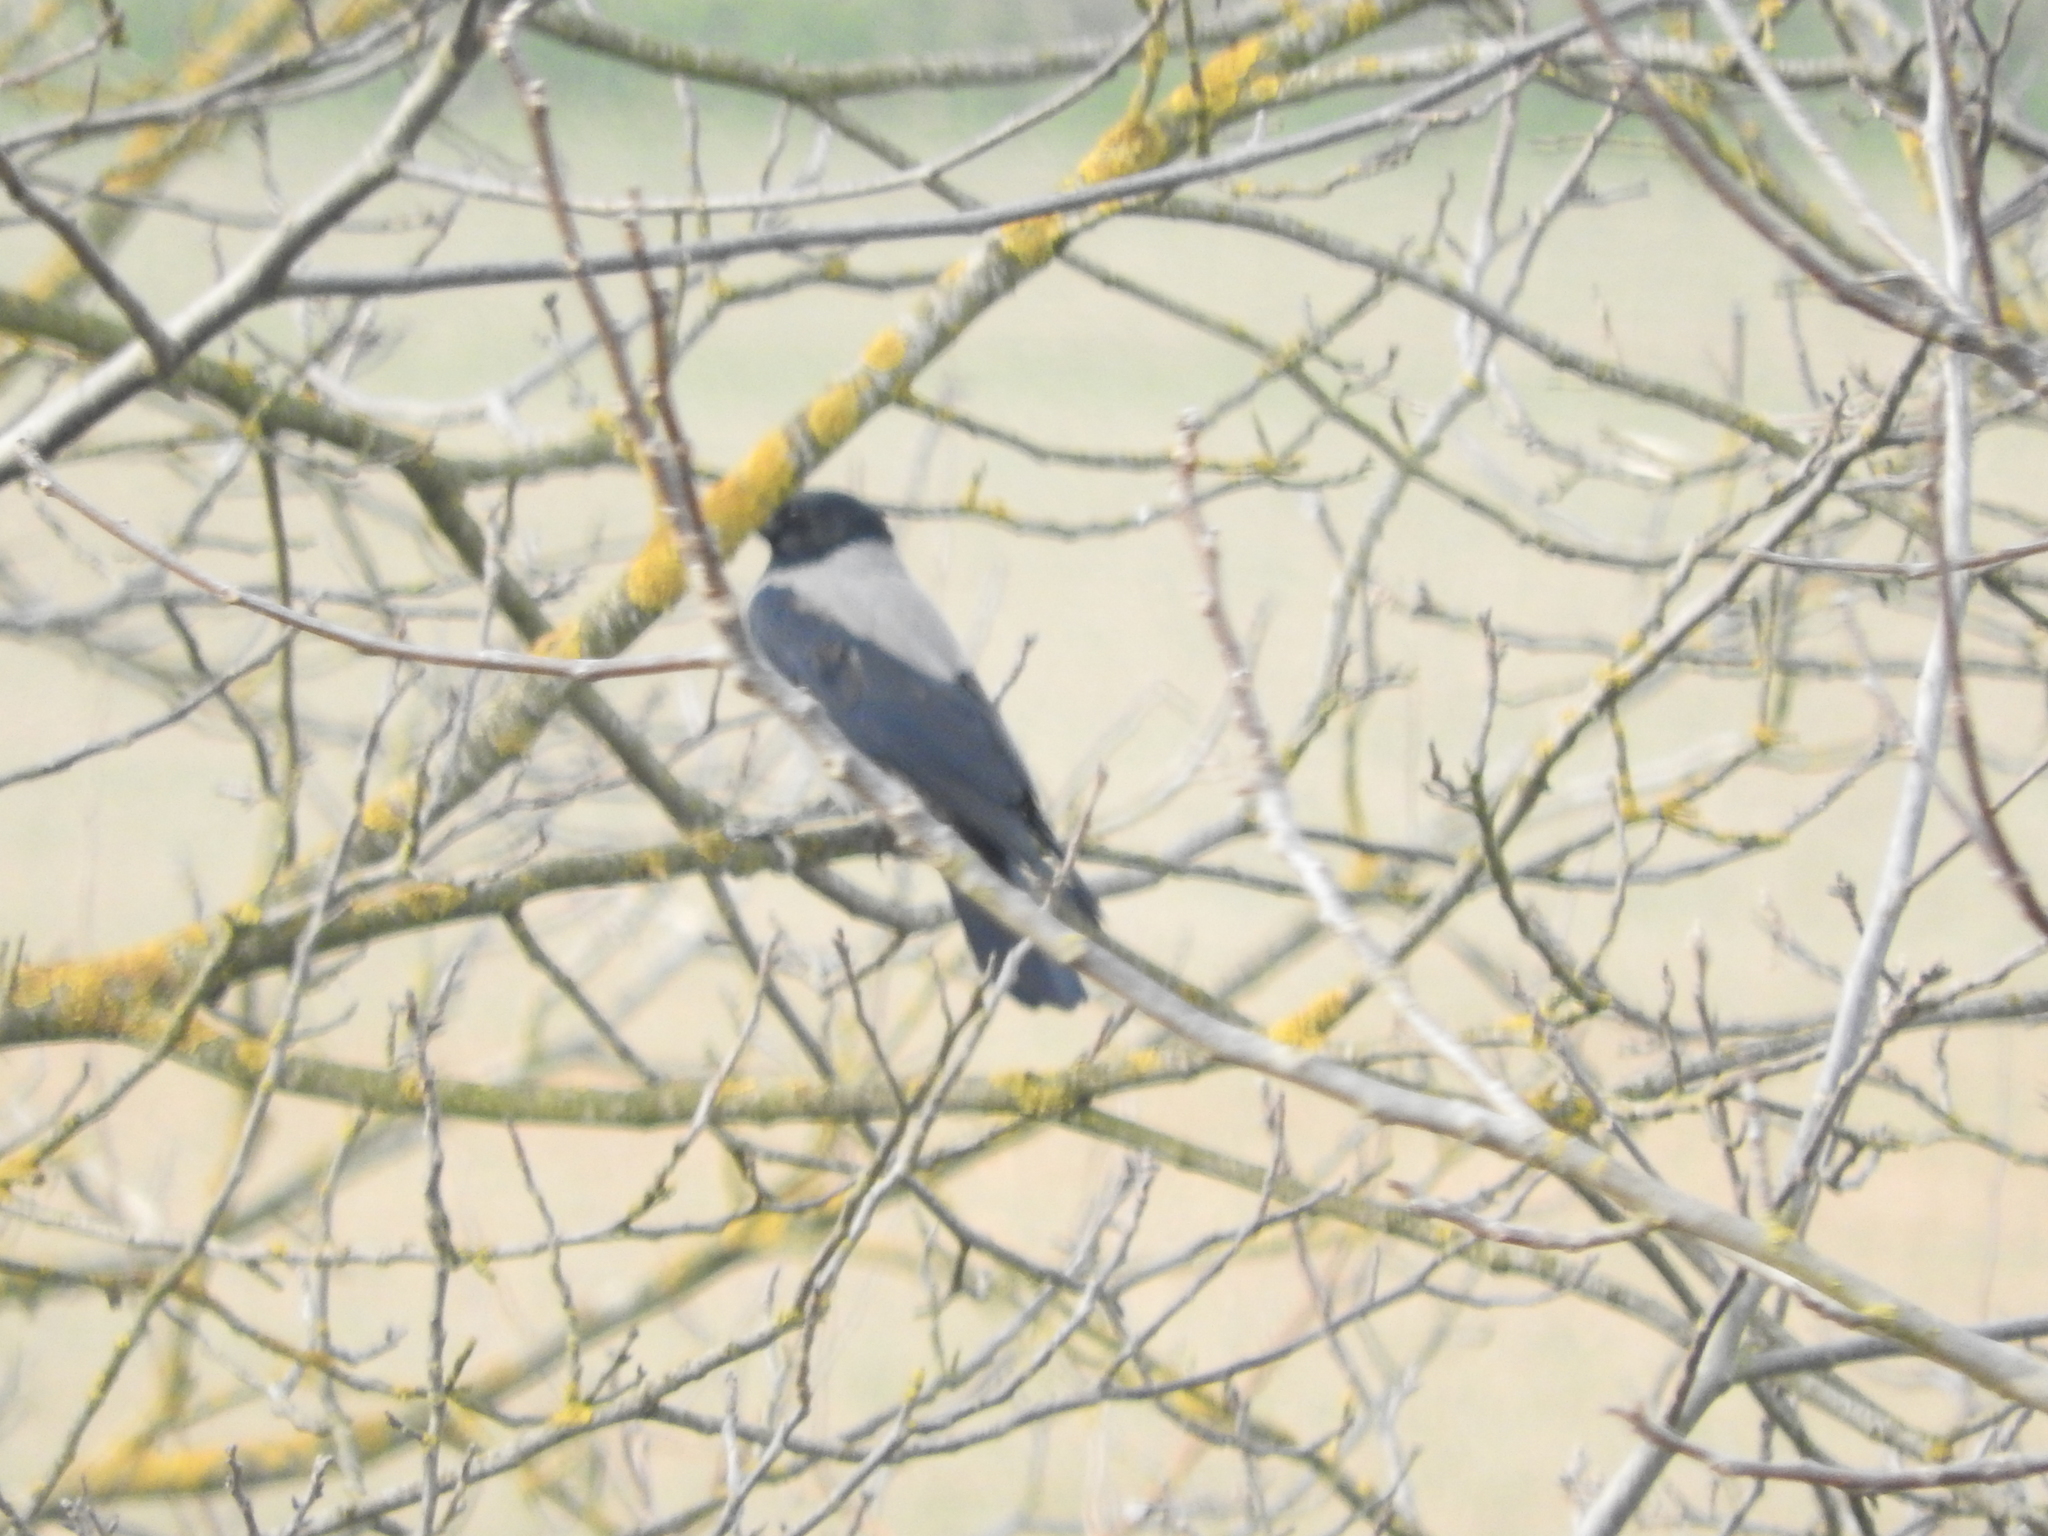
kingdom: Animalia
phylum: Chordata
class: Aves
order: Passeriformes
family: Corvidae
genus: Corvus
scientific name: Corvus cornix
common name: Hooded crow
